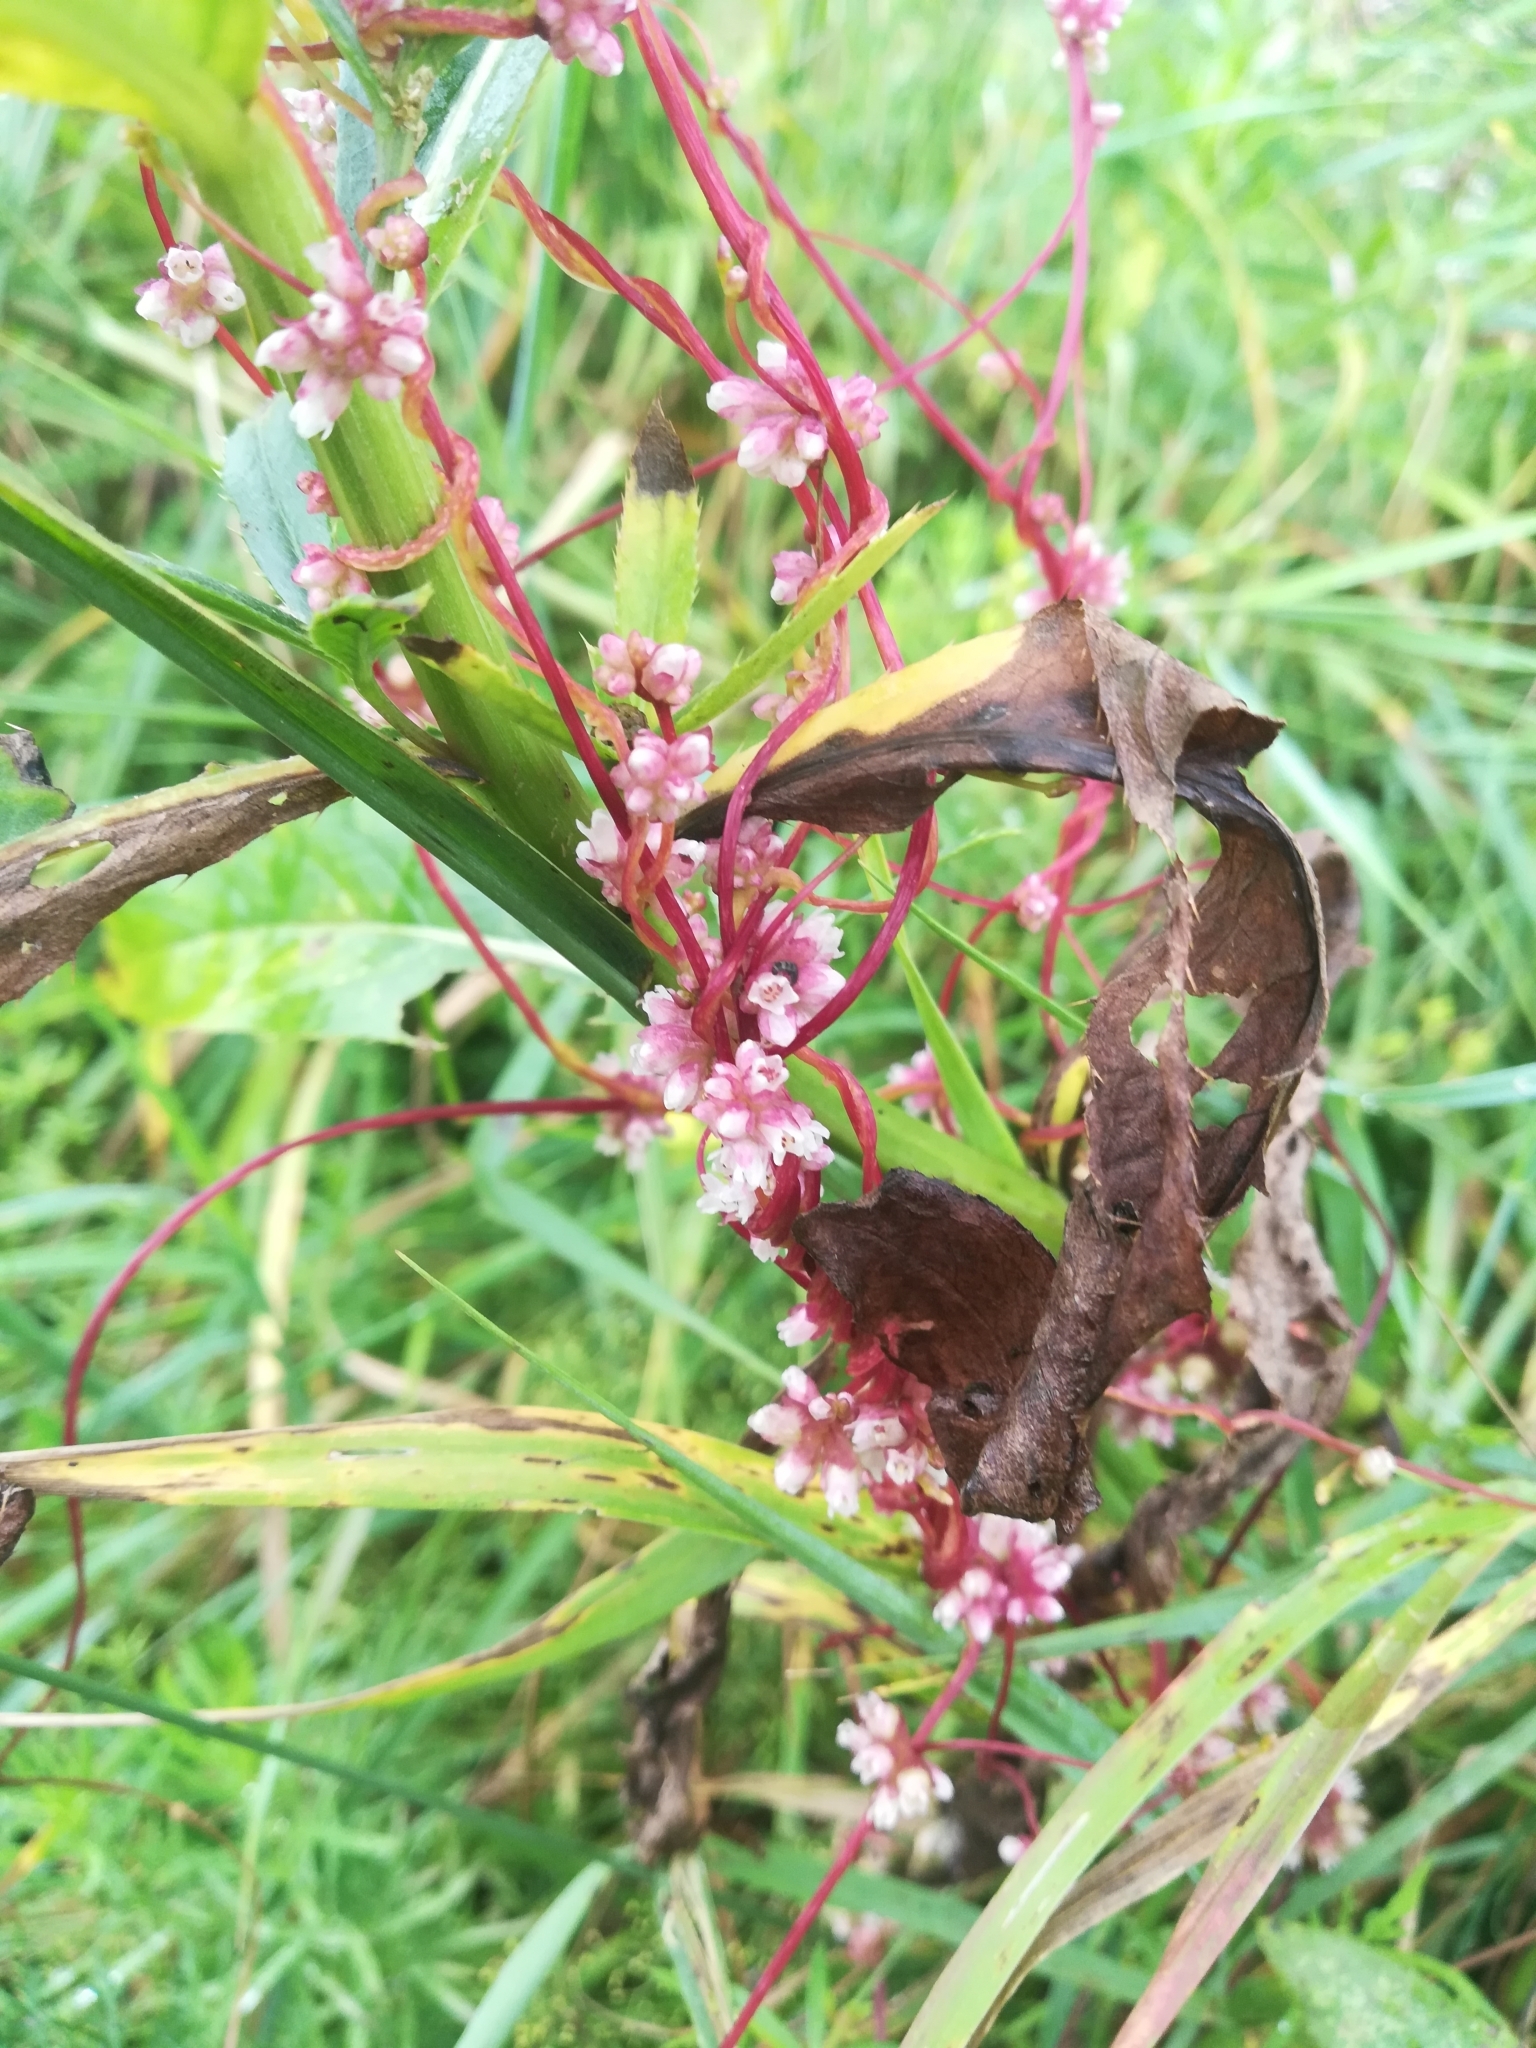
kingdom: Plantae
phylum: Tracheophyta
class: Magnoliopsida
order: Solanales
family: Convolvulaceae
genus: Cuscuta
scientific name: Cuscuta europaea
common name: Greater dodder
